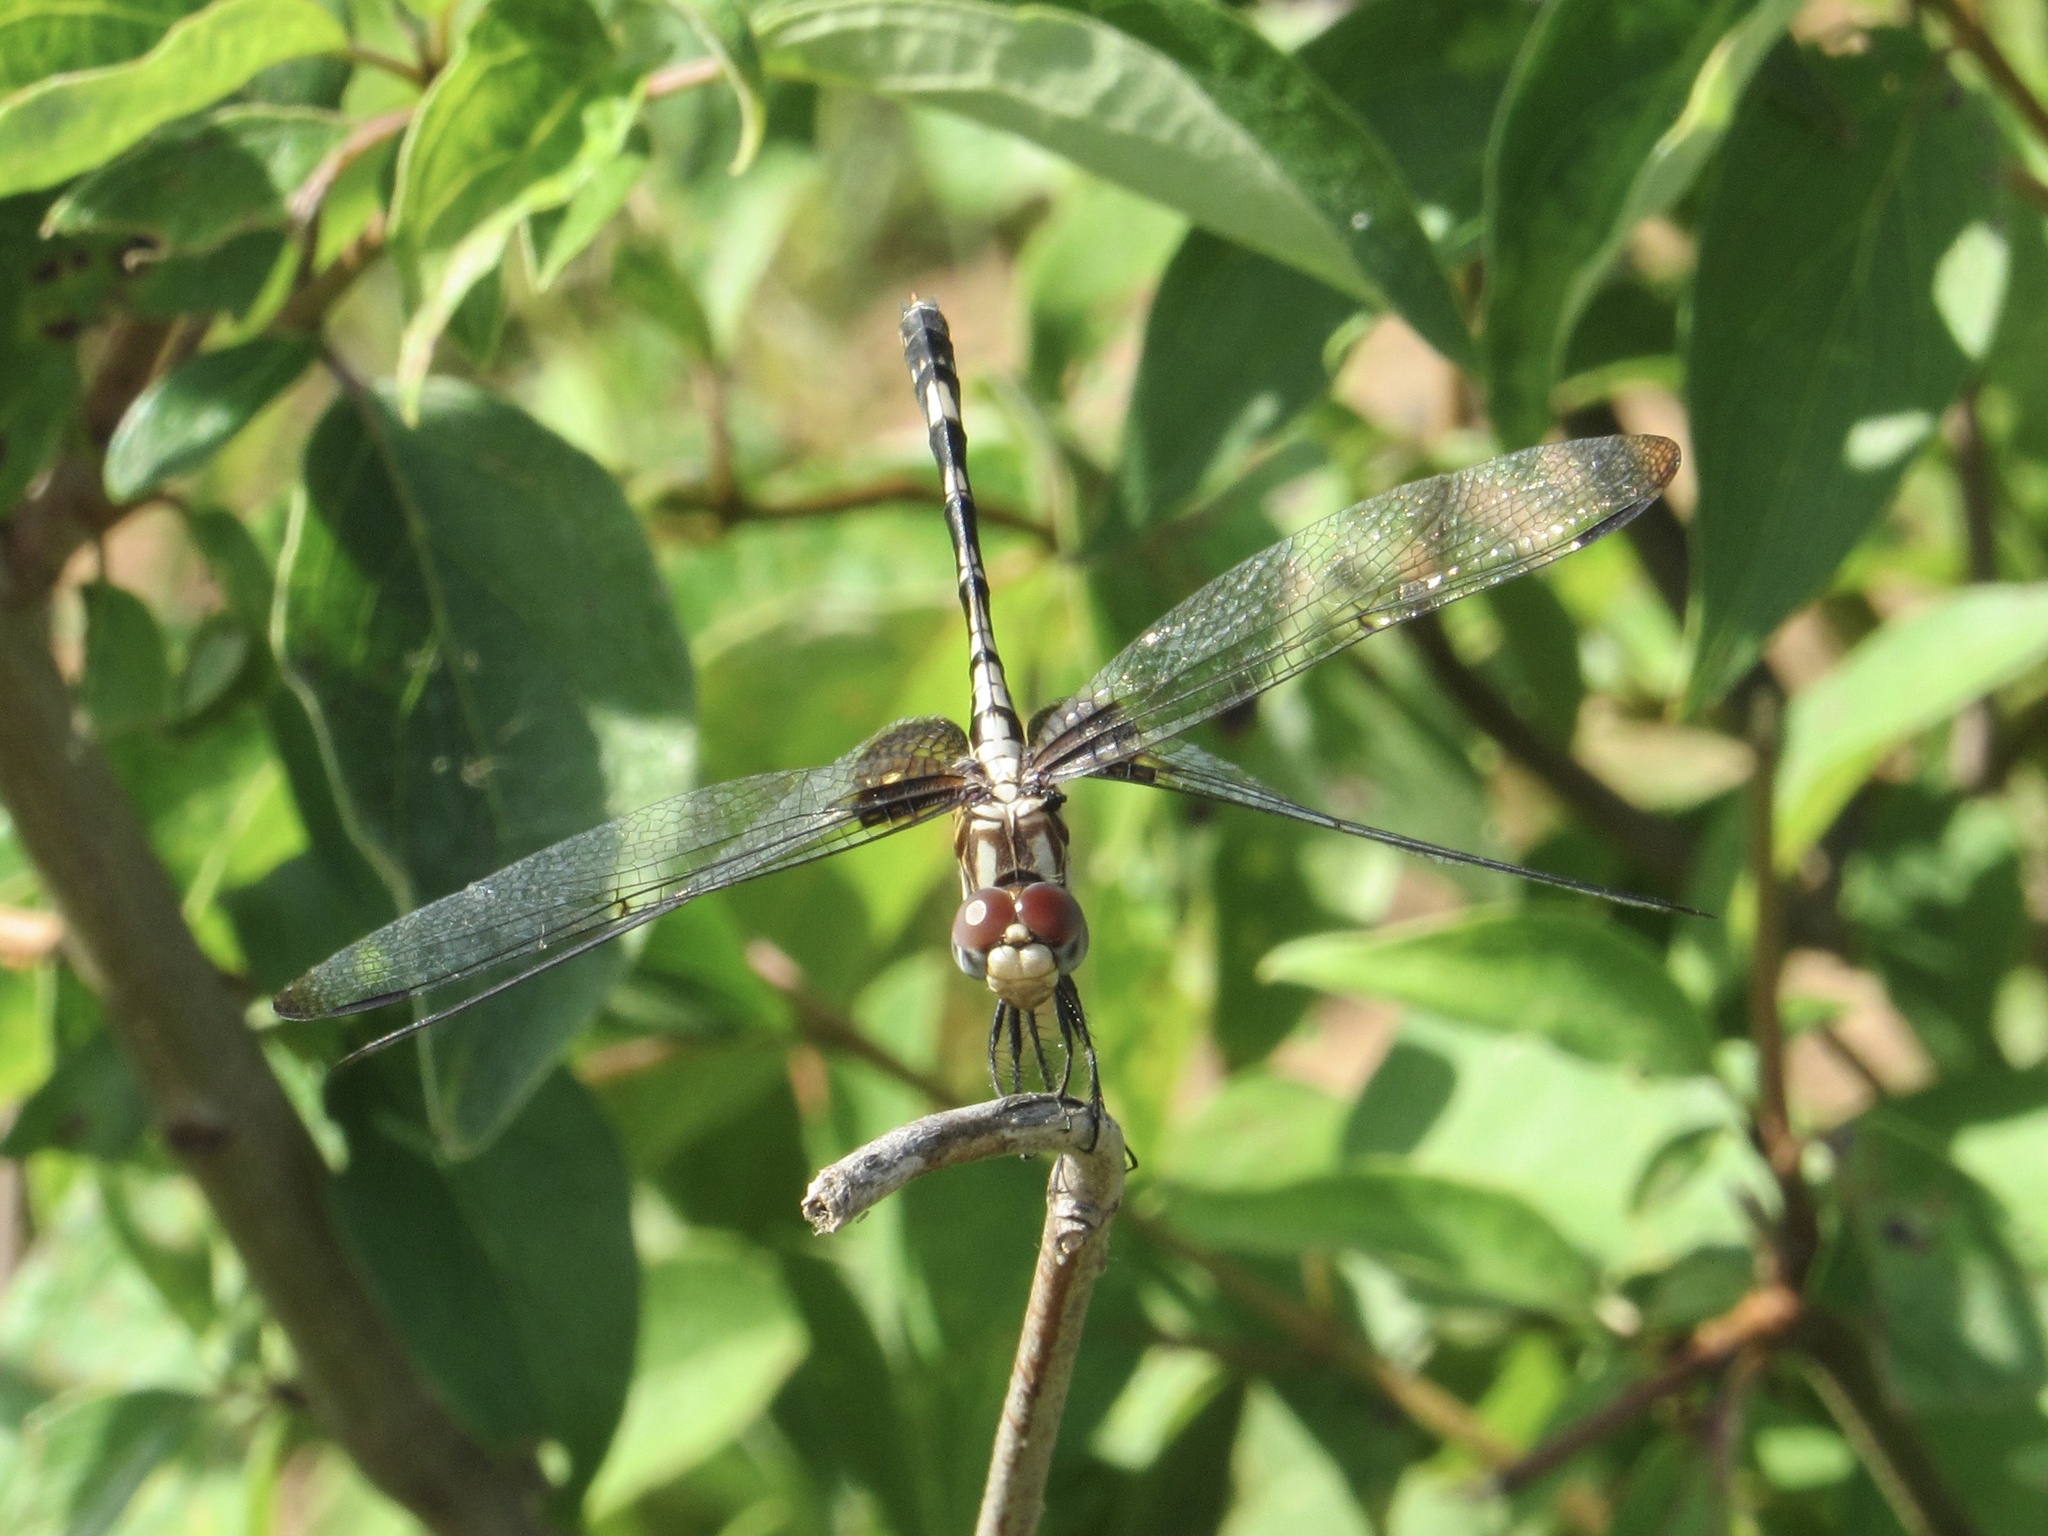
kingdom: Animalia
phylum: Arthropoda
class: Insecta
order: Odonata
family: Libellulidae
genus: Dythemis
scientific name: Dythemis fugax
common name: Checkered setwing
